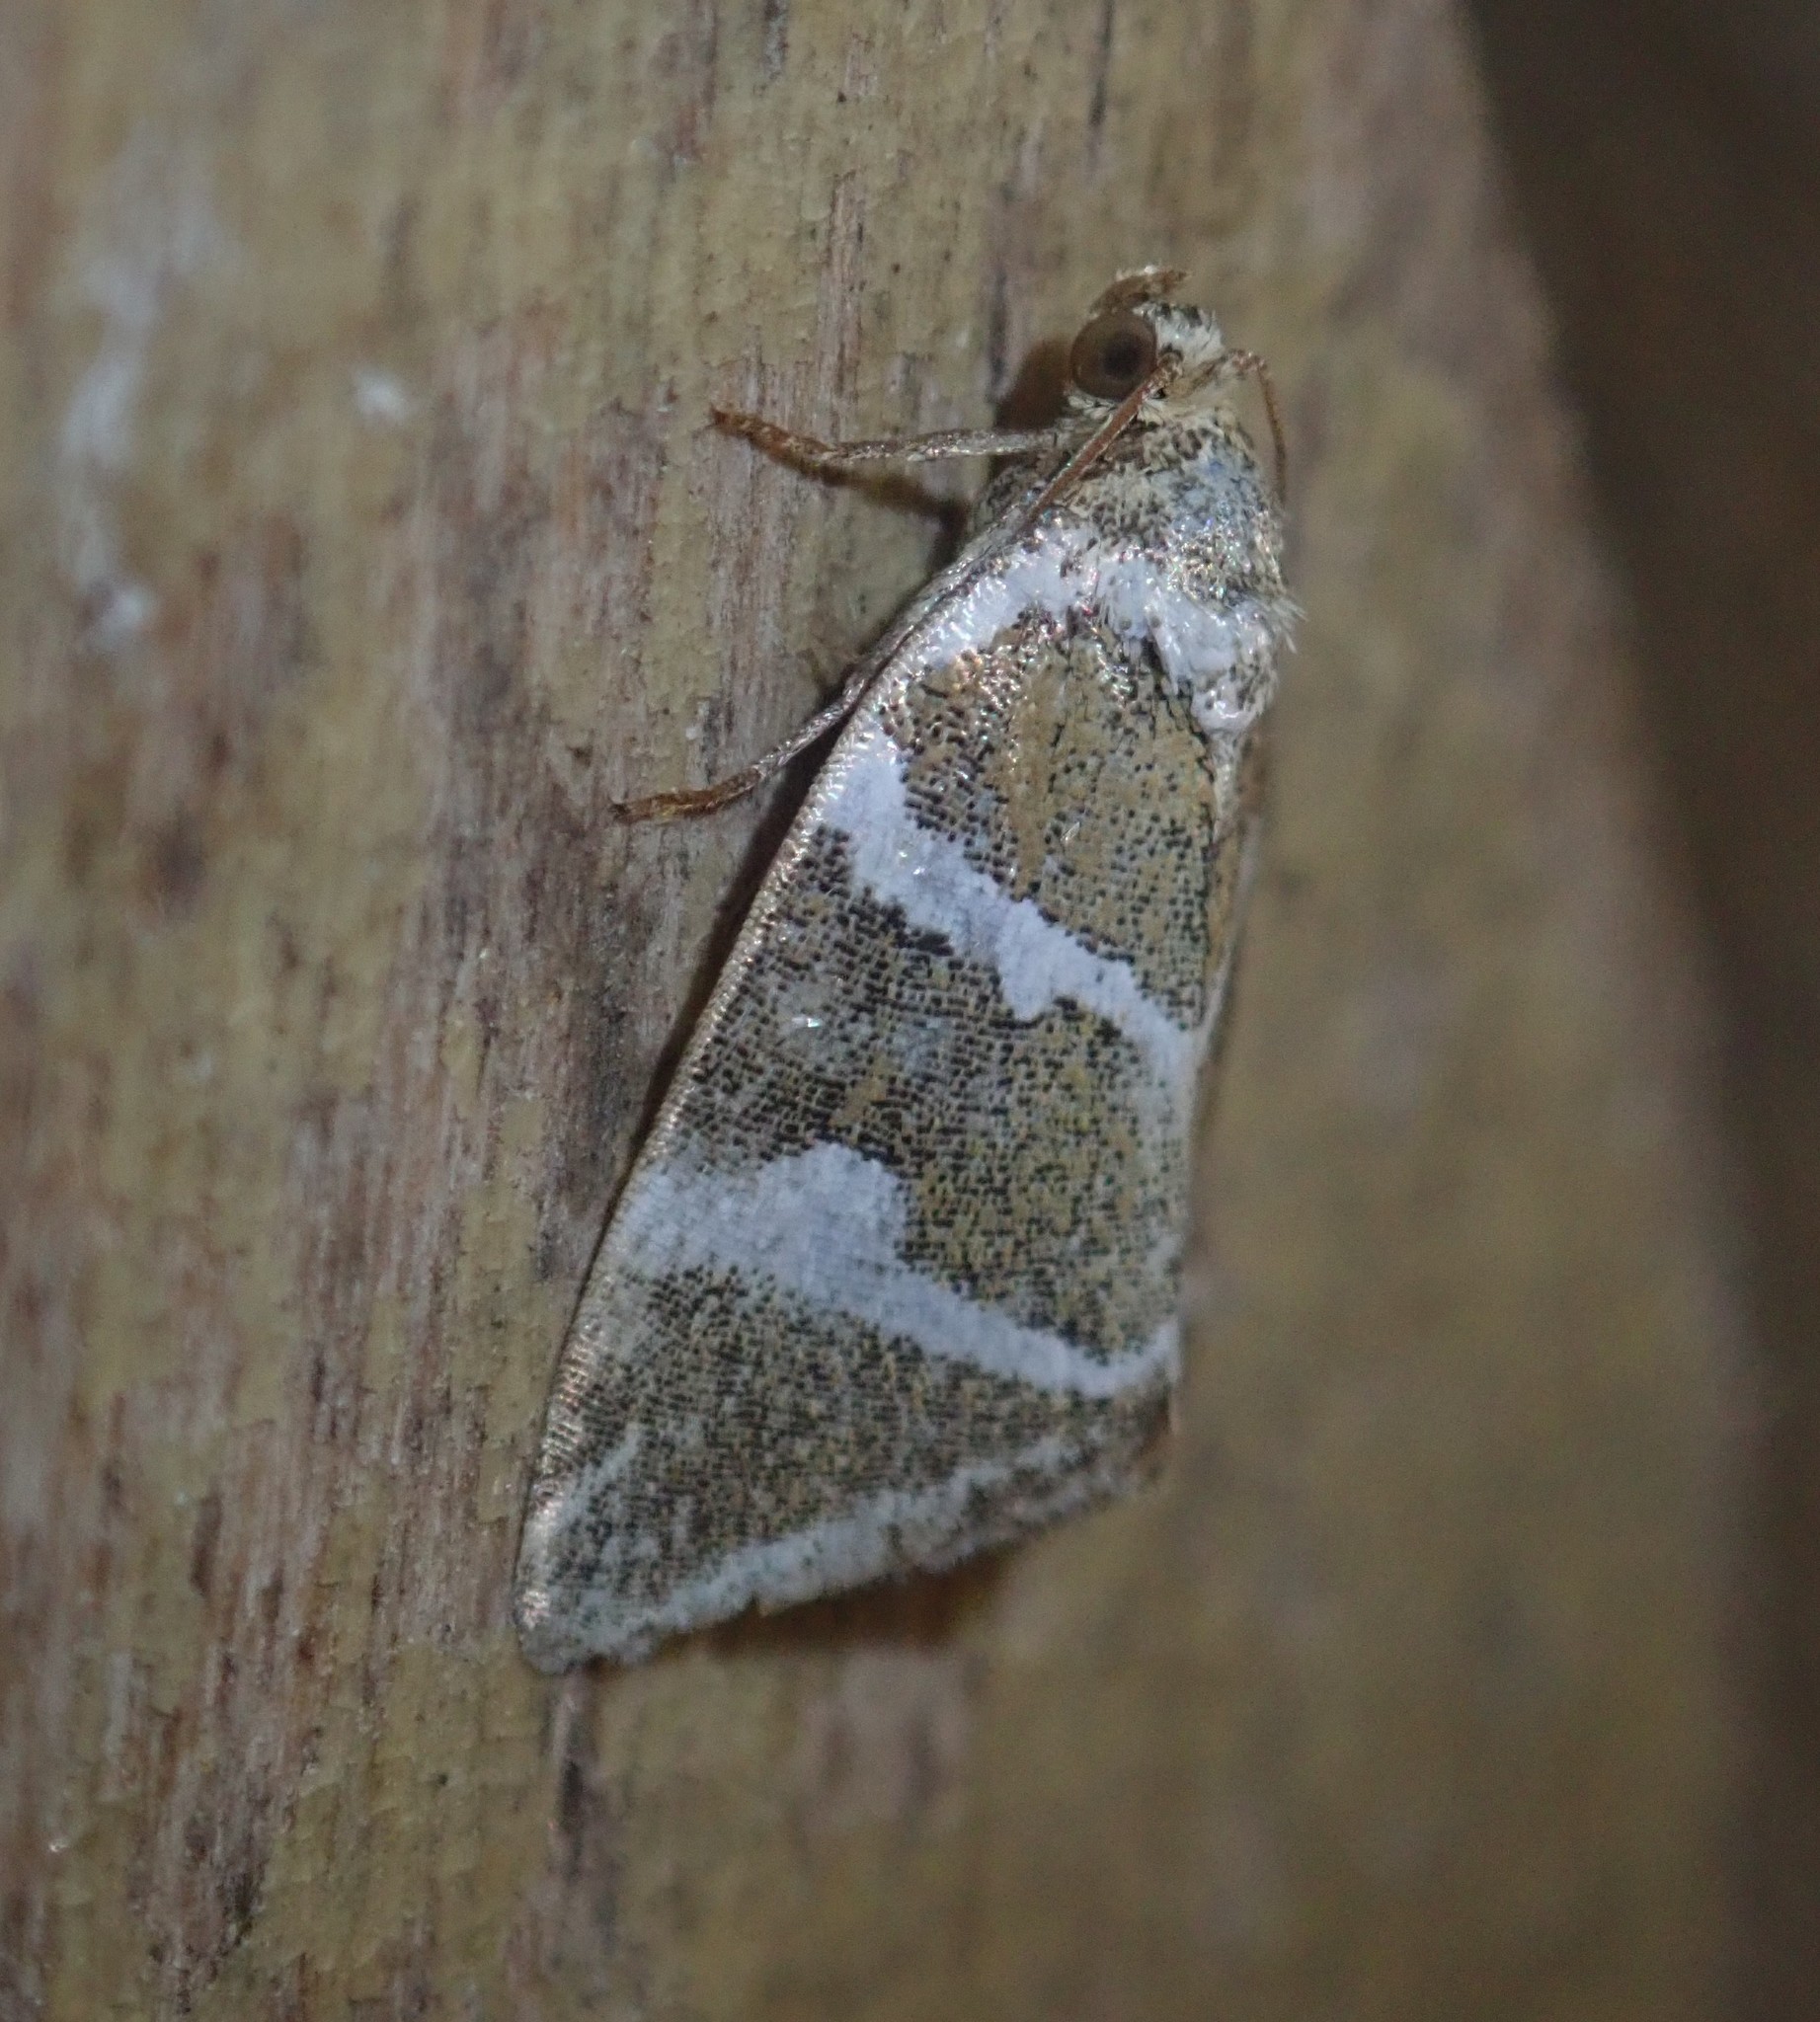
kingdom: Animalia
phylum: Arthropoda
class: Insecta
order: Lepidoptera
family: Noctuidae
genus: Deltote
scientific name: Deltote bankiana
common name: Silver barred
